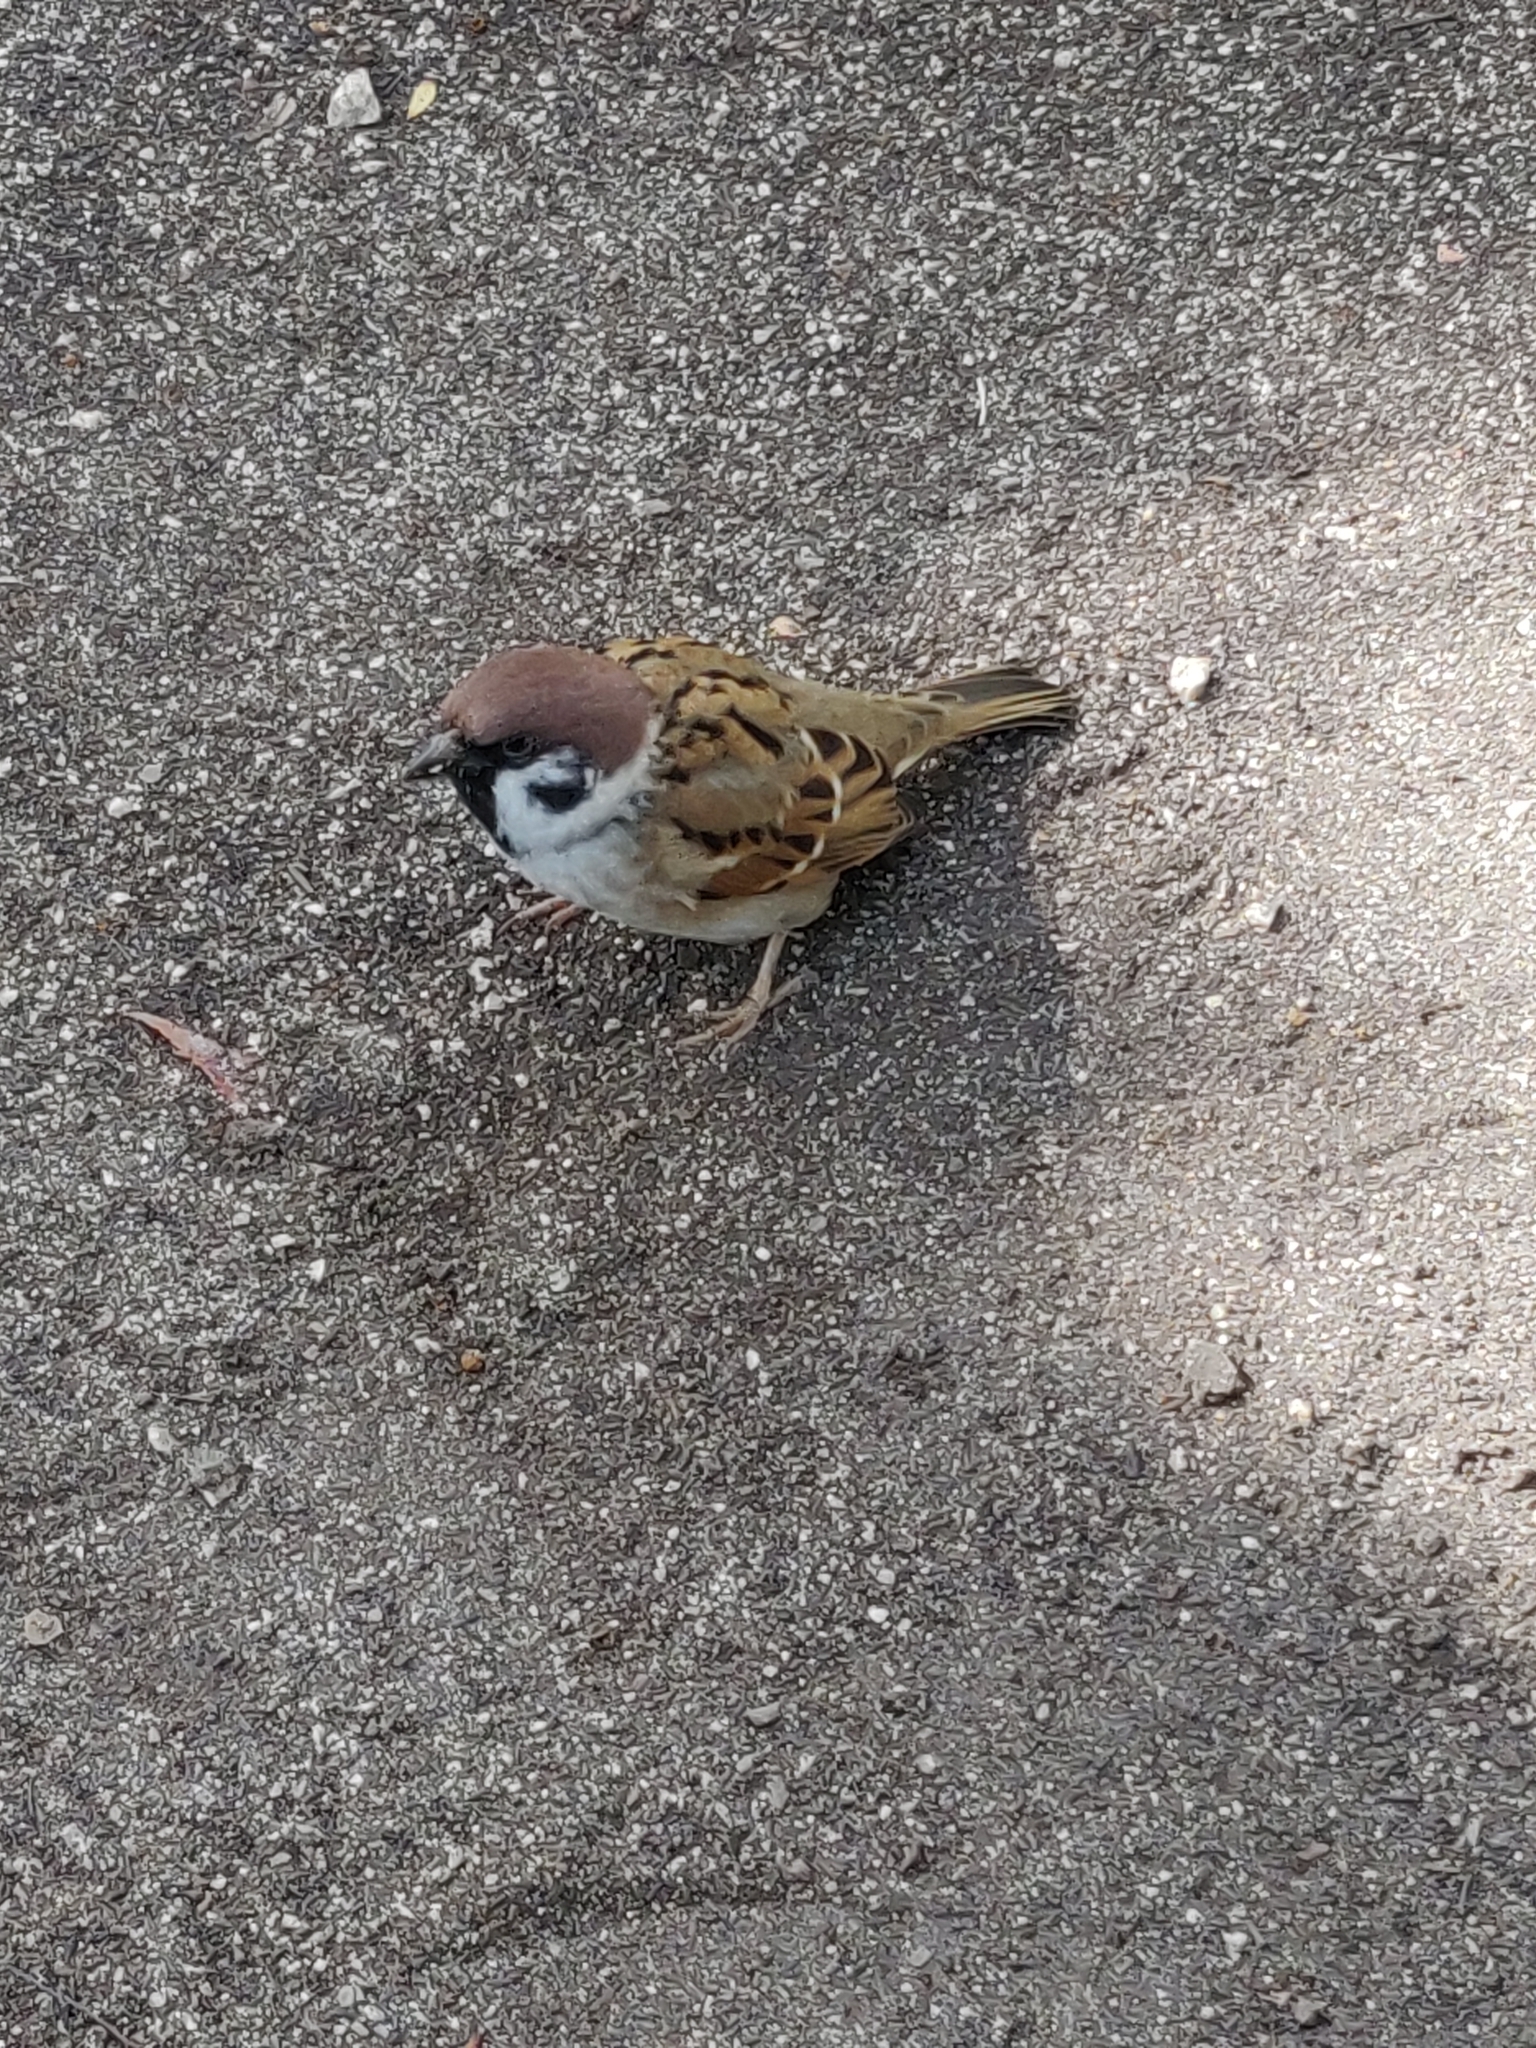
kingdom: Animalia
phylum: Chordata
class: Aves
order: Passeriformes
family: Passeridae
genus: Passer
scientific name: Passer montanus
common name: Eurasian tree sparrow
